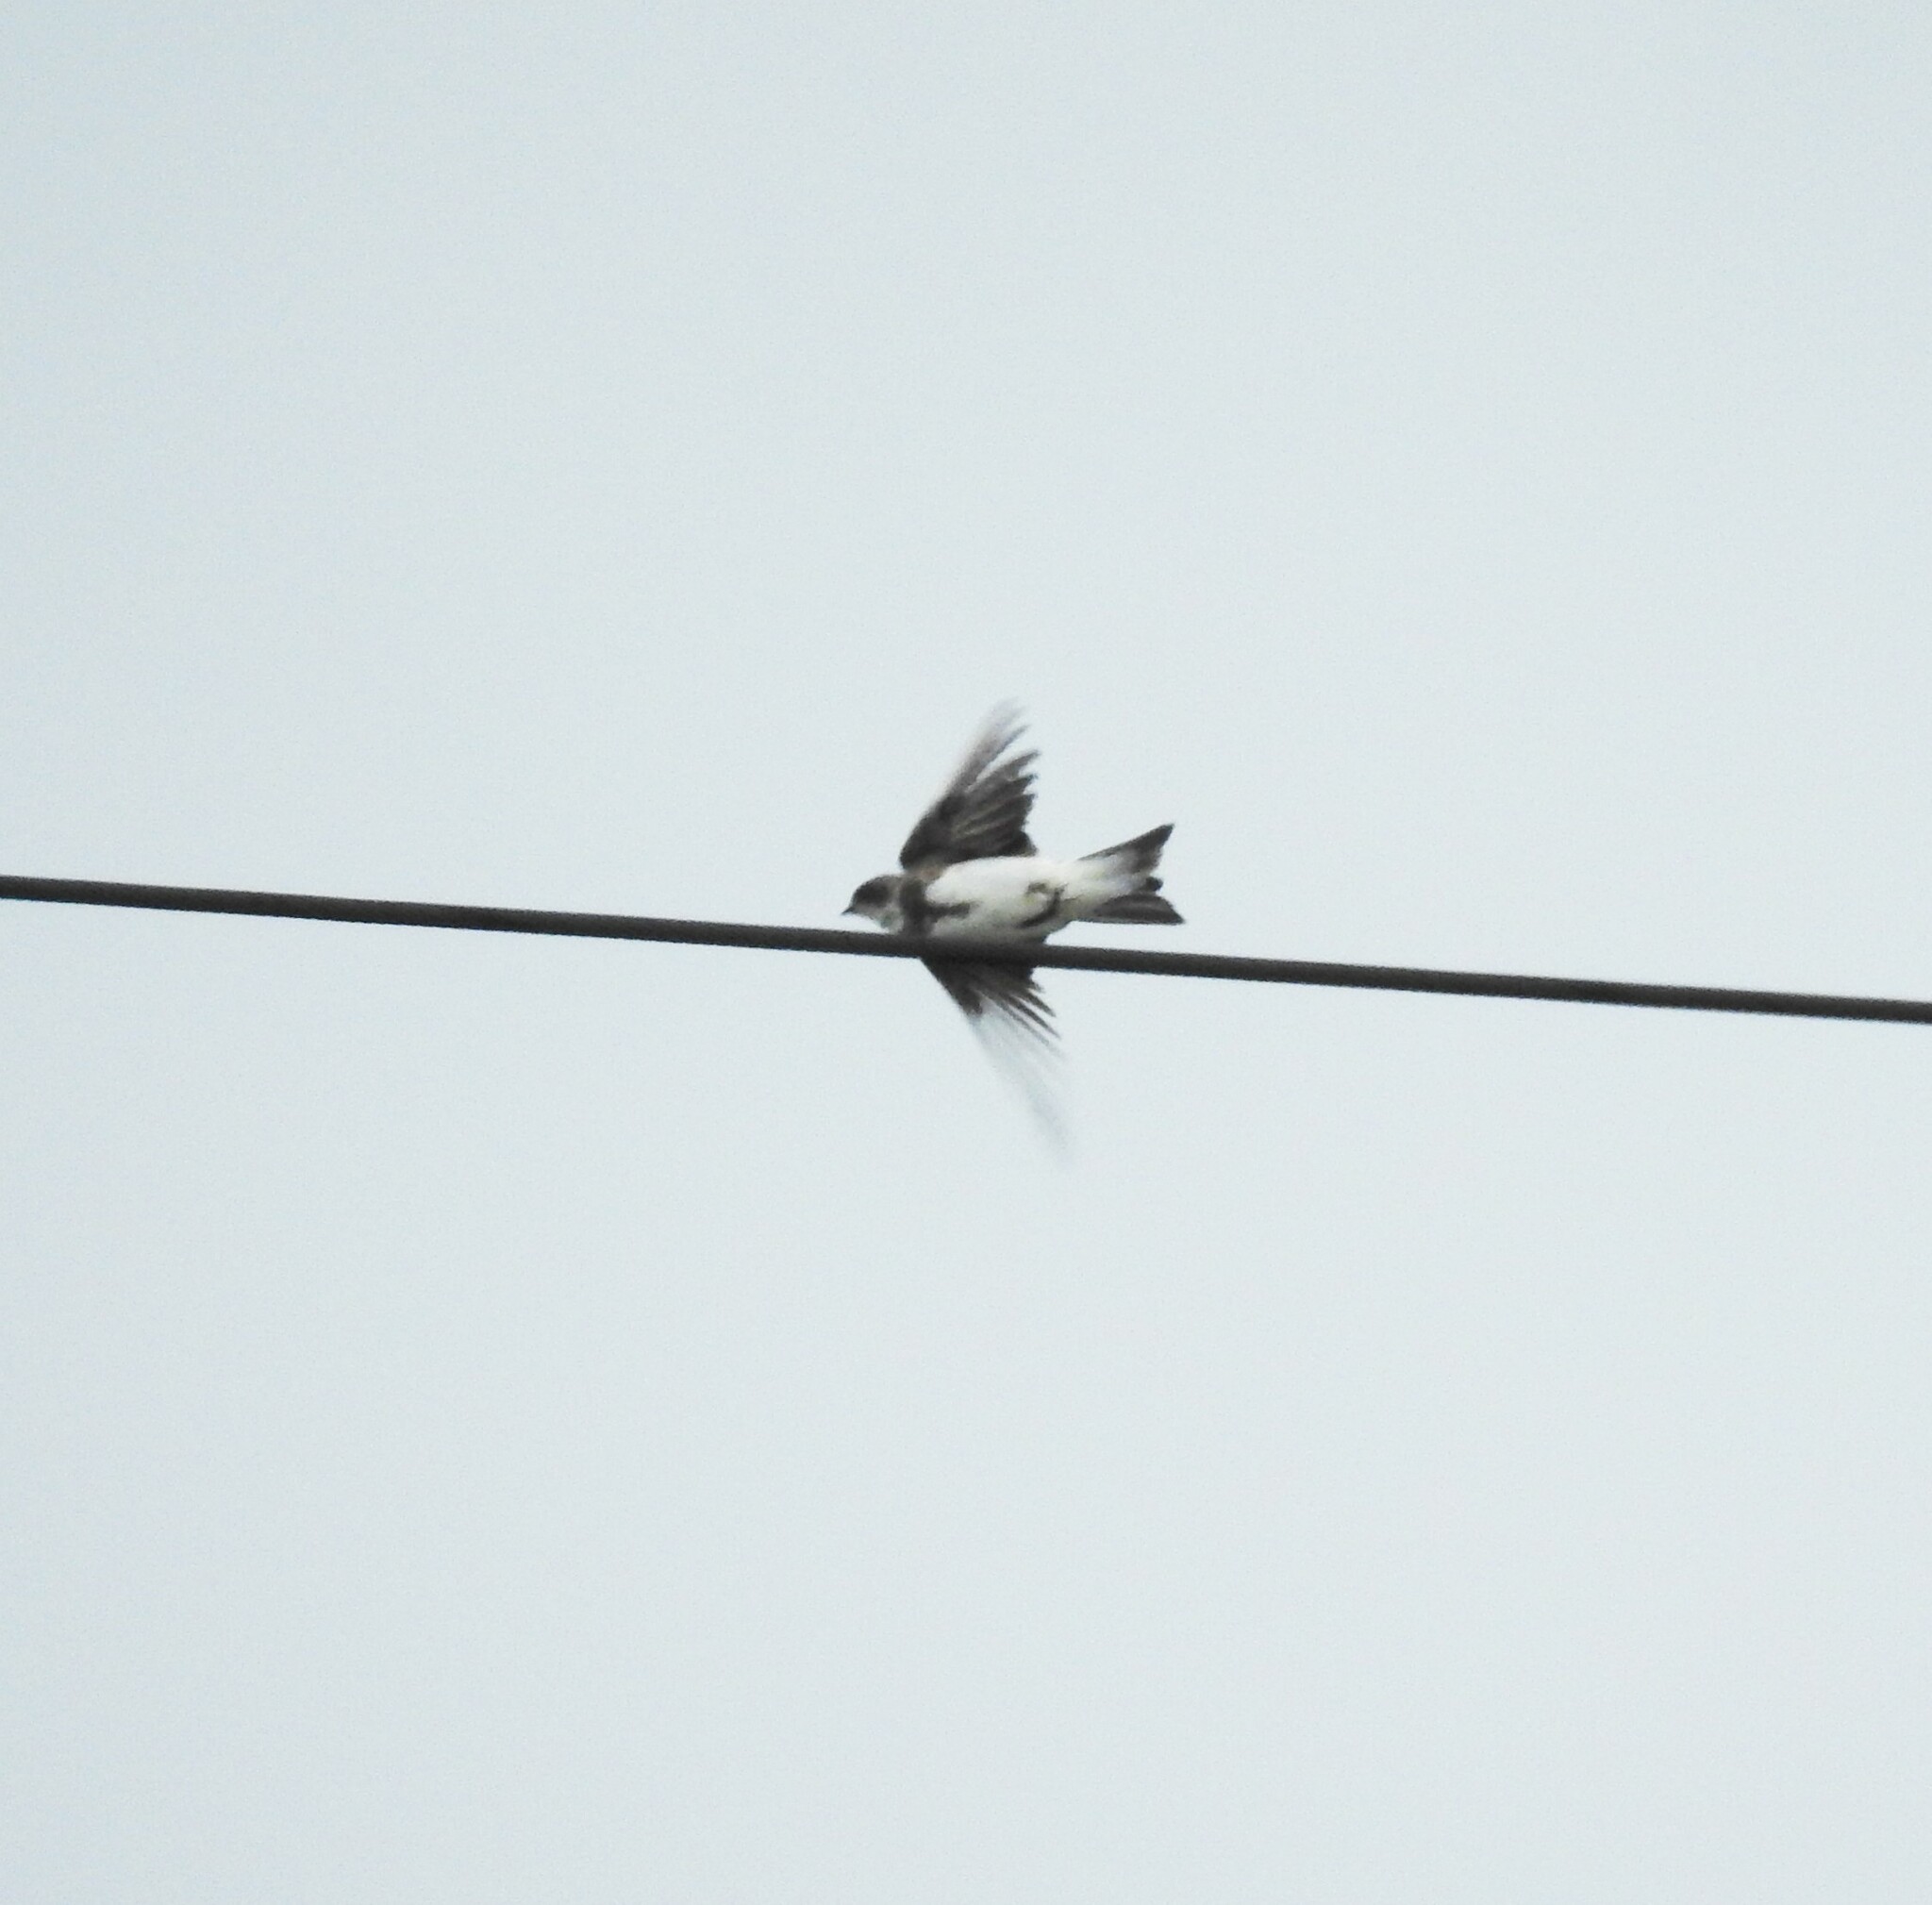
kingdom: Animalia
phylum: Chordata
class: Aves
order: Passeriformes
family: Hirundinidae
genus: Riparia
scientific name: Riparia riparia
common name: Sand martin
